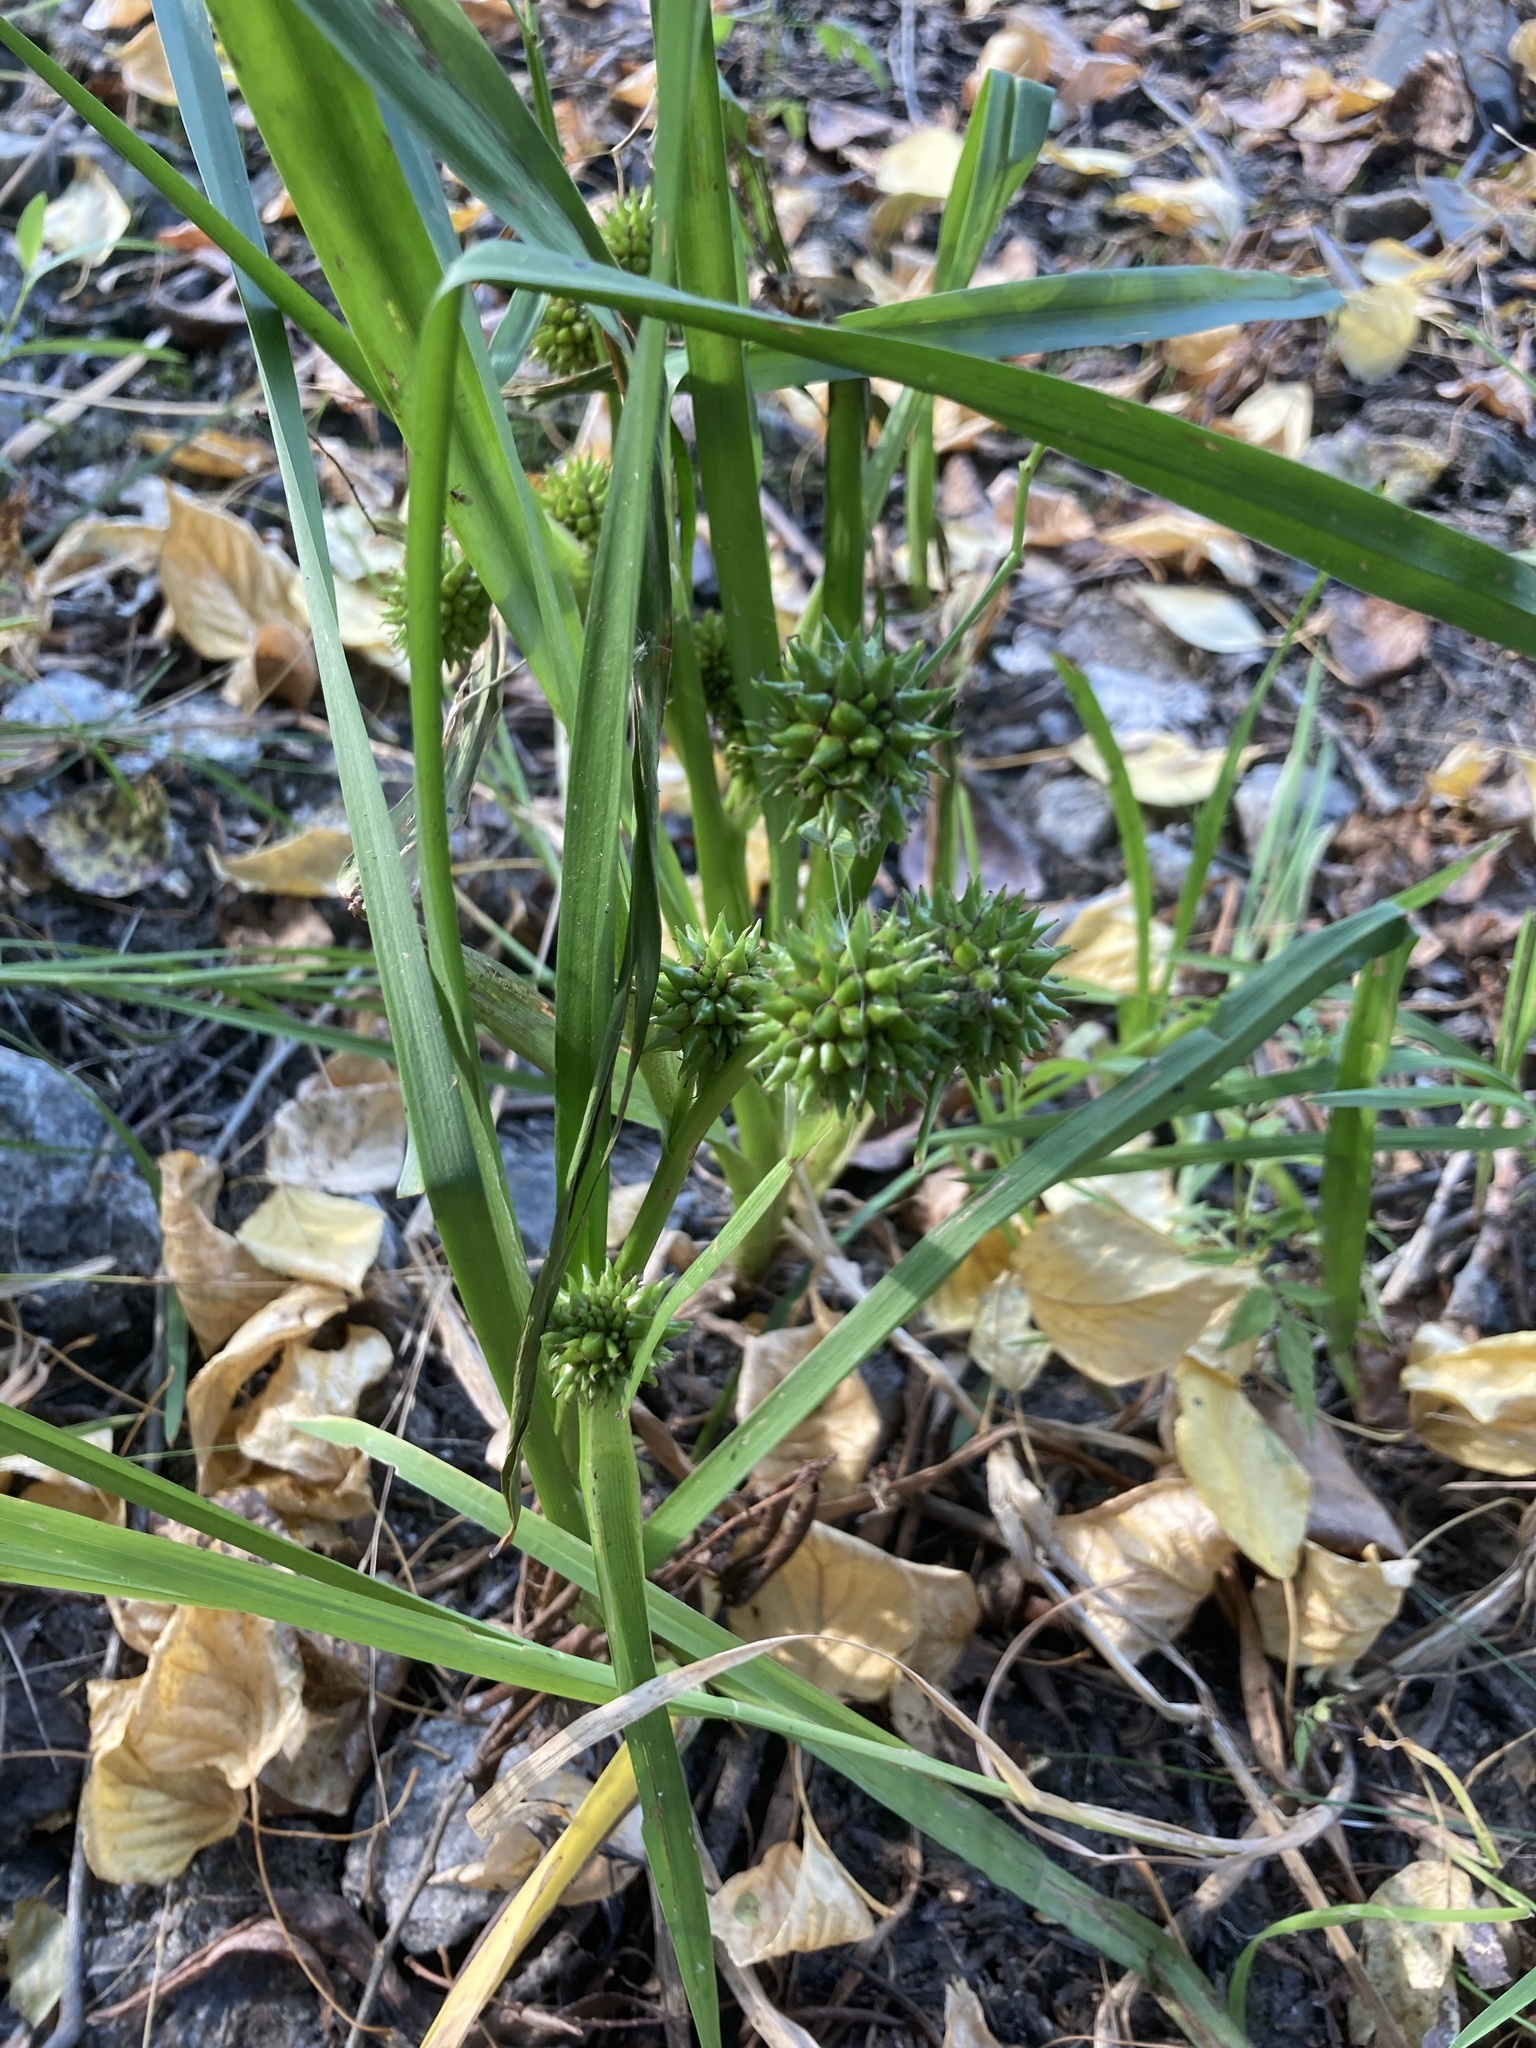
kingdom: Plantae
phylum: Tracheophyta
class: Liliopsida
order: Poales
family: Typhaceae
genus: Sparganium
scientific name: Sparganium erectum
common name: Branched bur-reed
